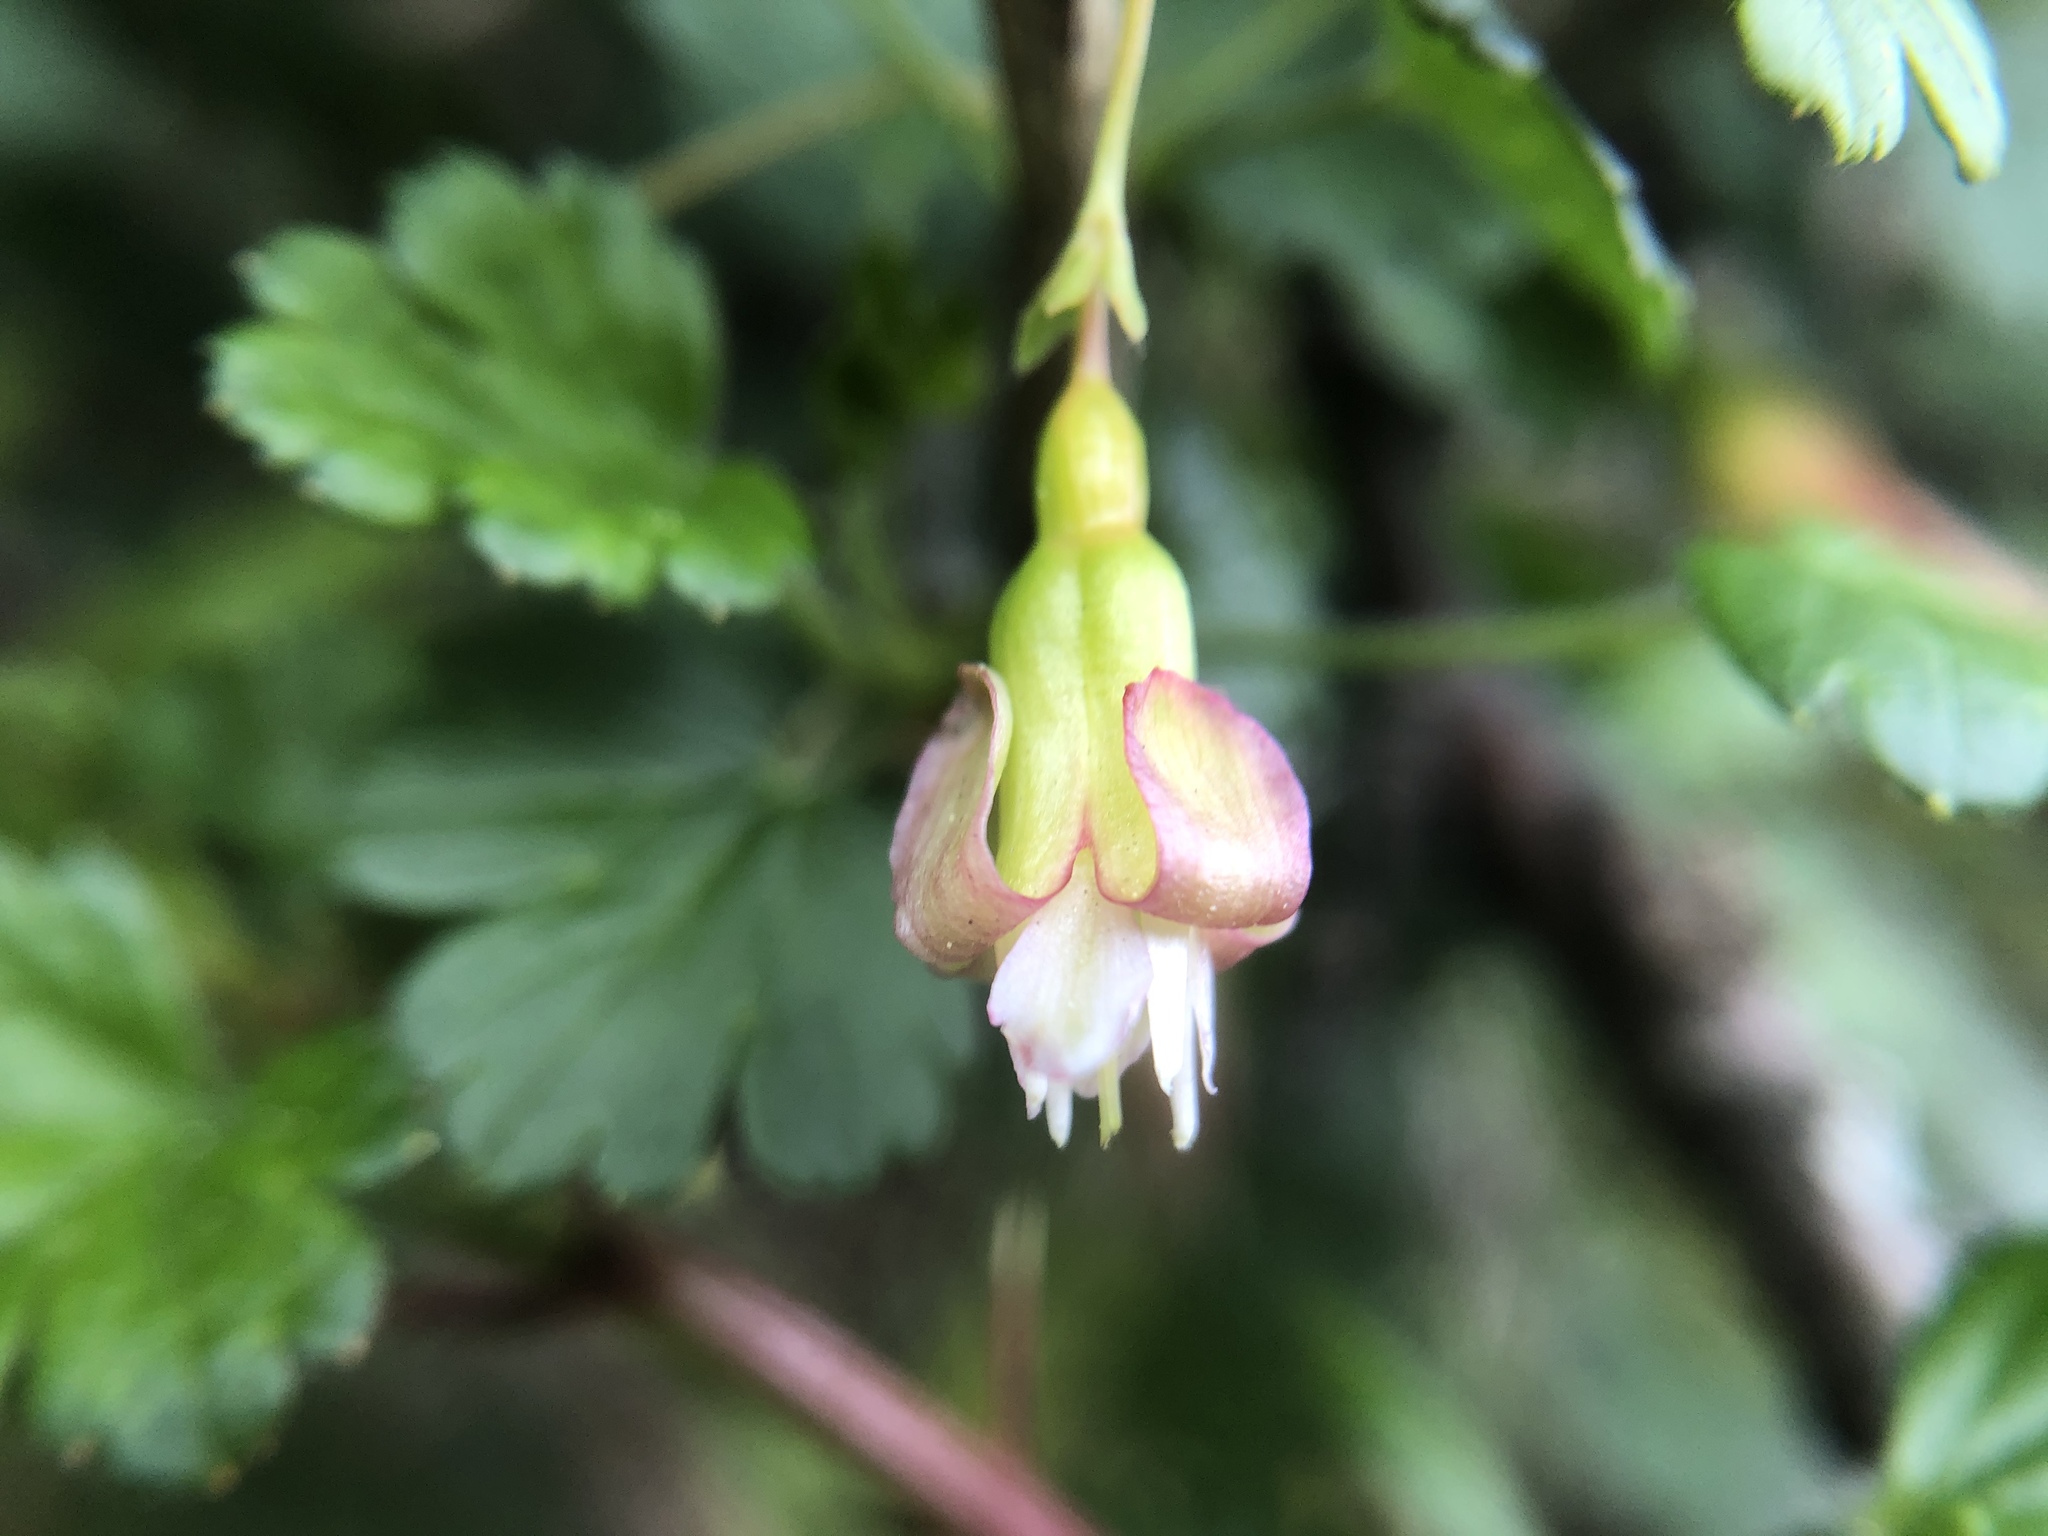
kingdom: Plantae
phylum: Tracheophyta
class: Magnoliopsida
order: Saxifragales
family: Grossulariaceae
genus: Ribes
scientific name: Ribes formosanum
